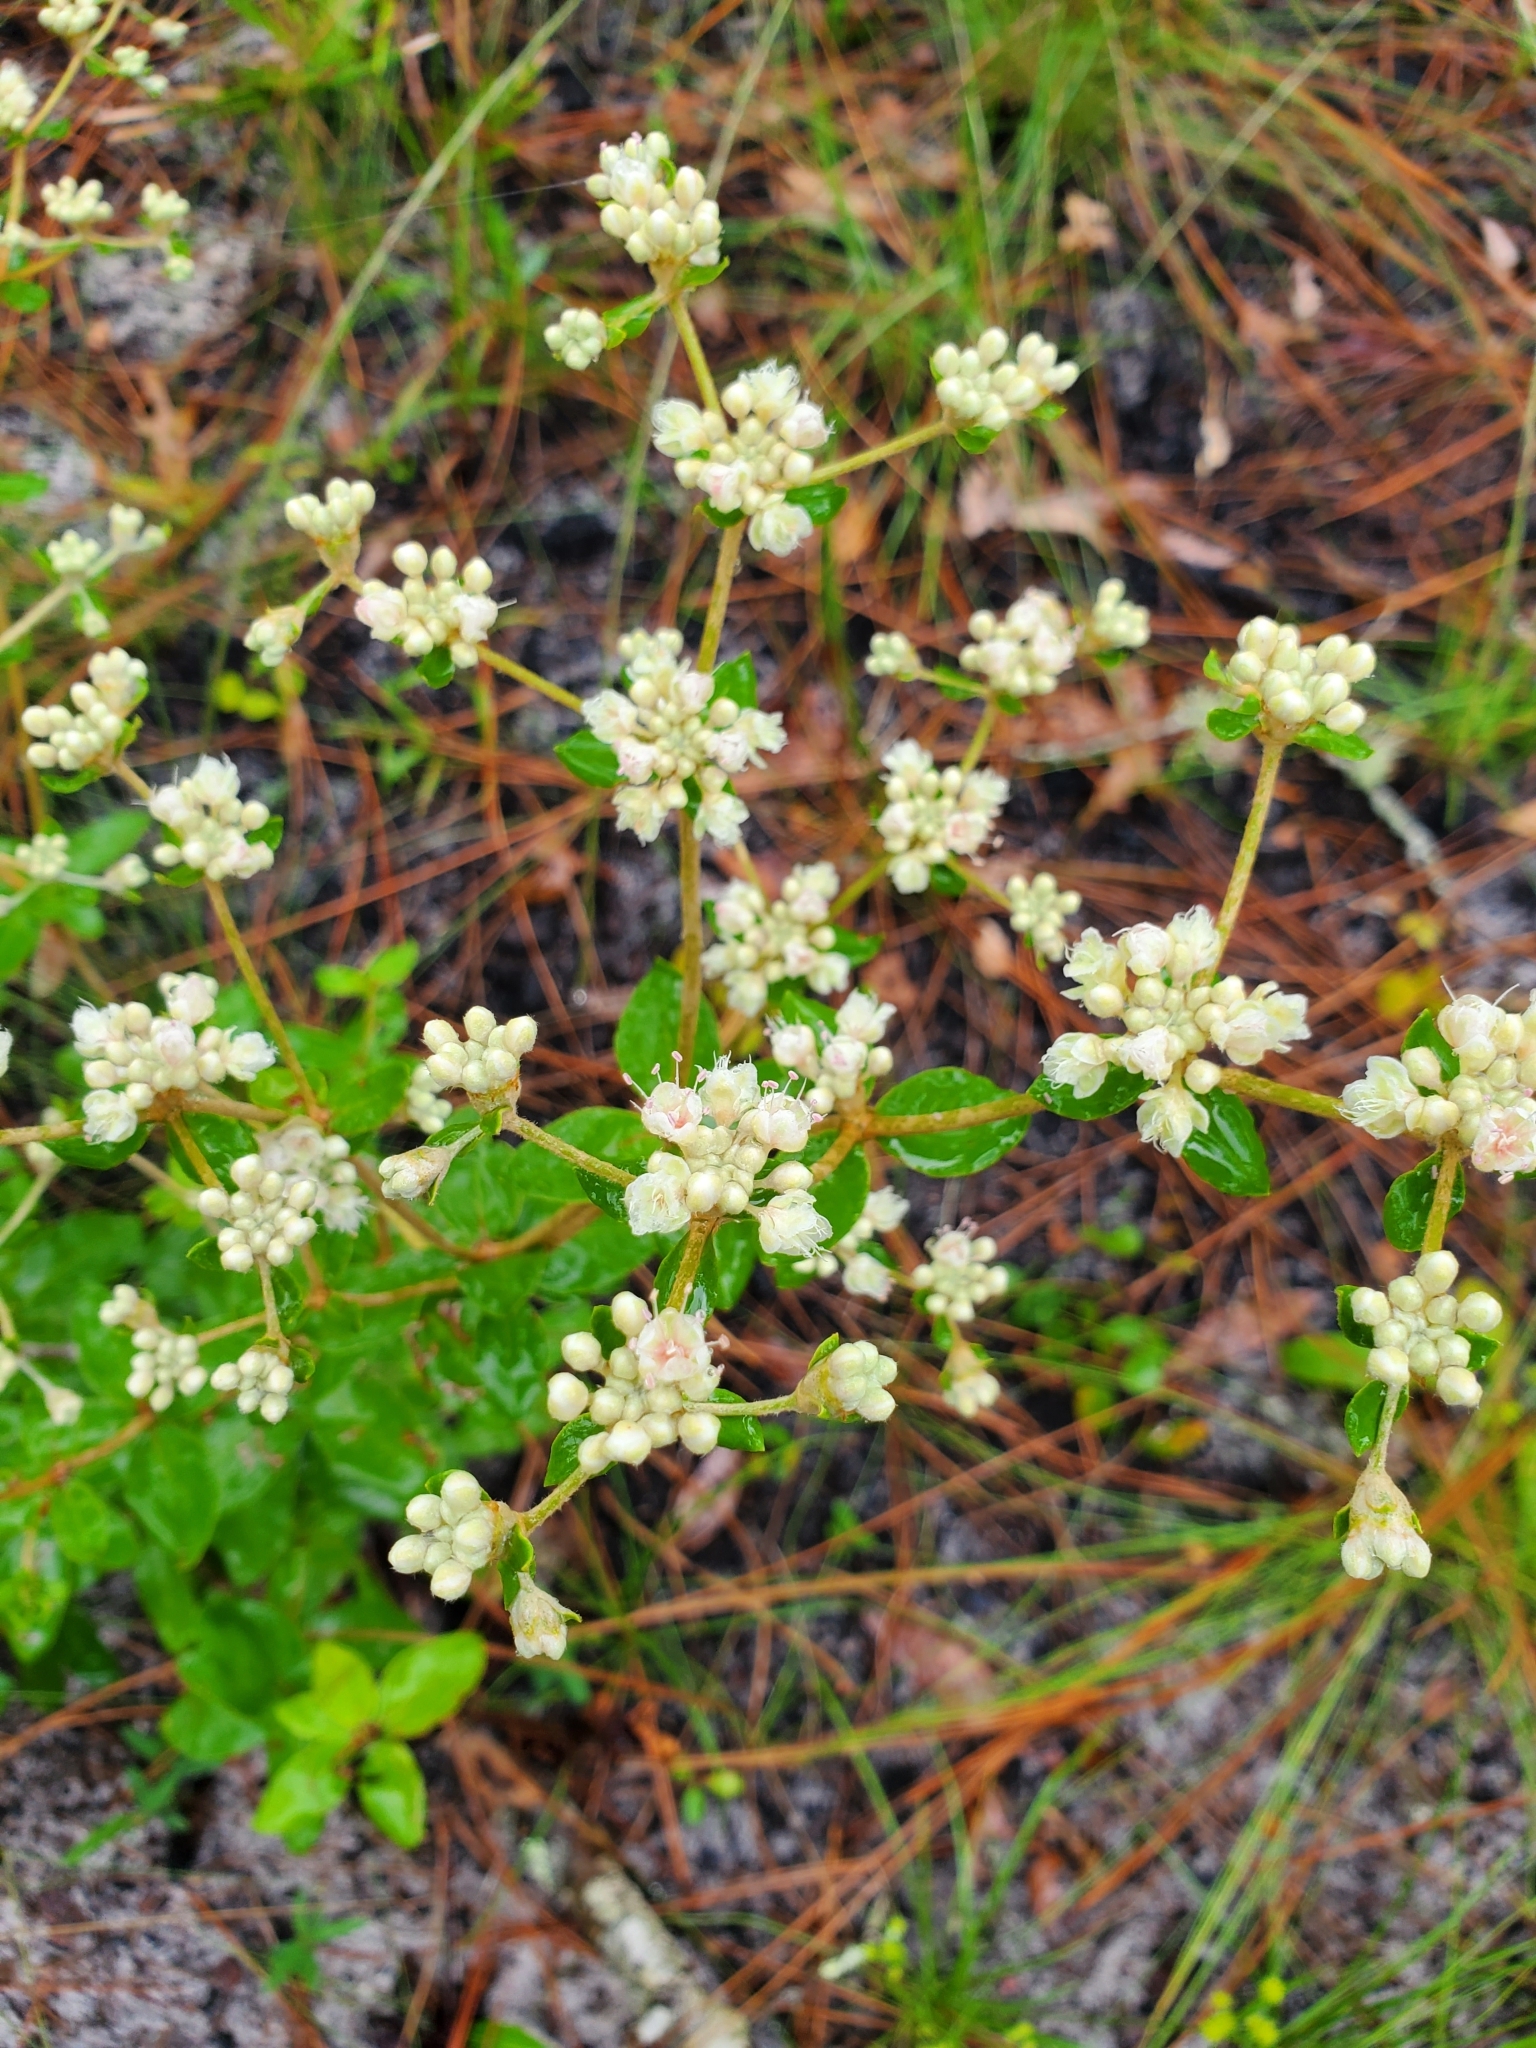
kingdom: Plantae
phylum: Tracheophyta
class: Magnoliopsida
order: Caryophyllales
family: Polygonaceae
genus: Eriogonum
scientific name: Eriogonum tomentosum
